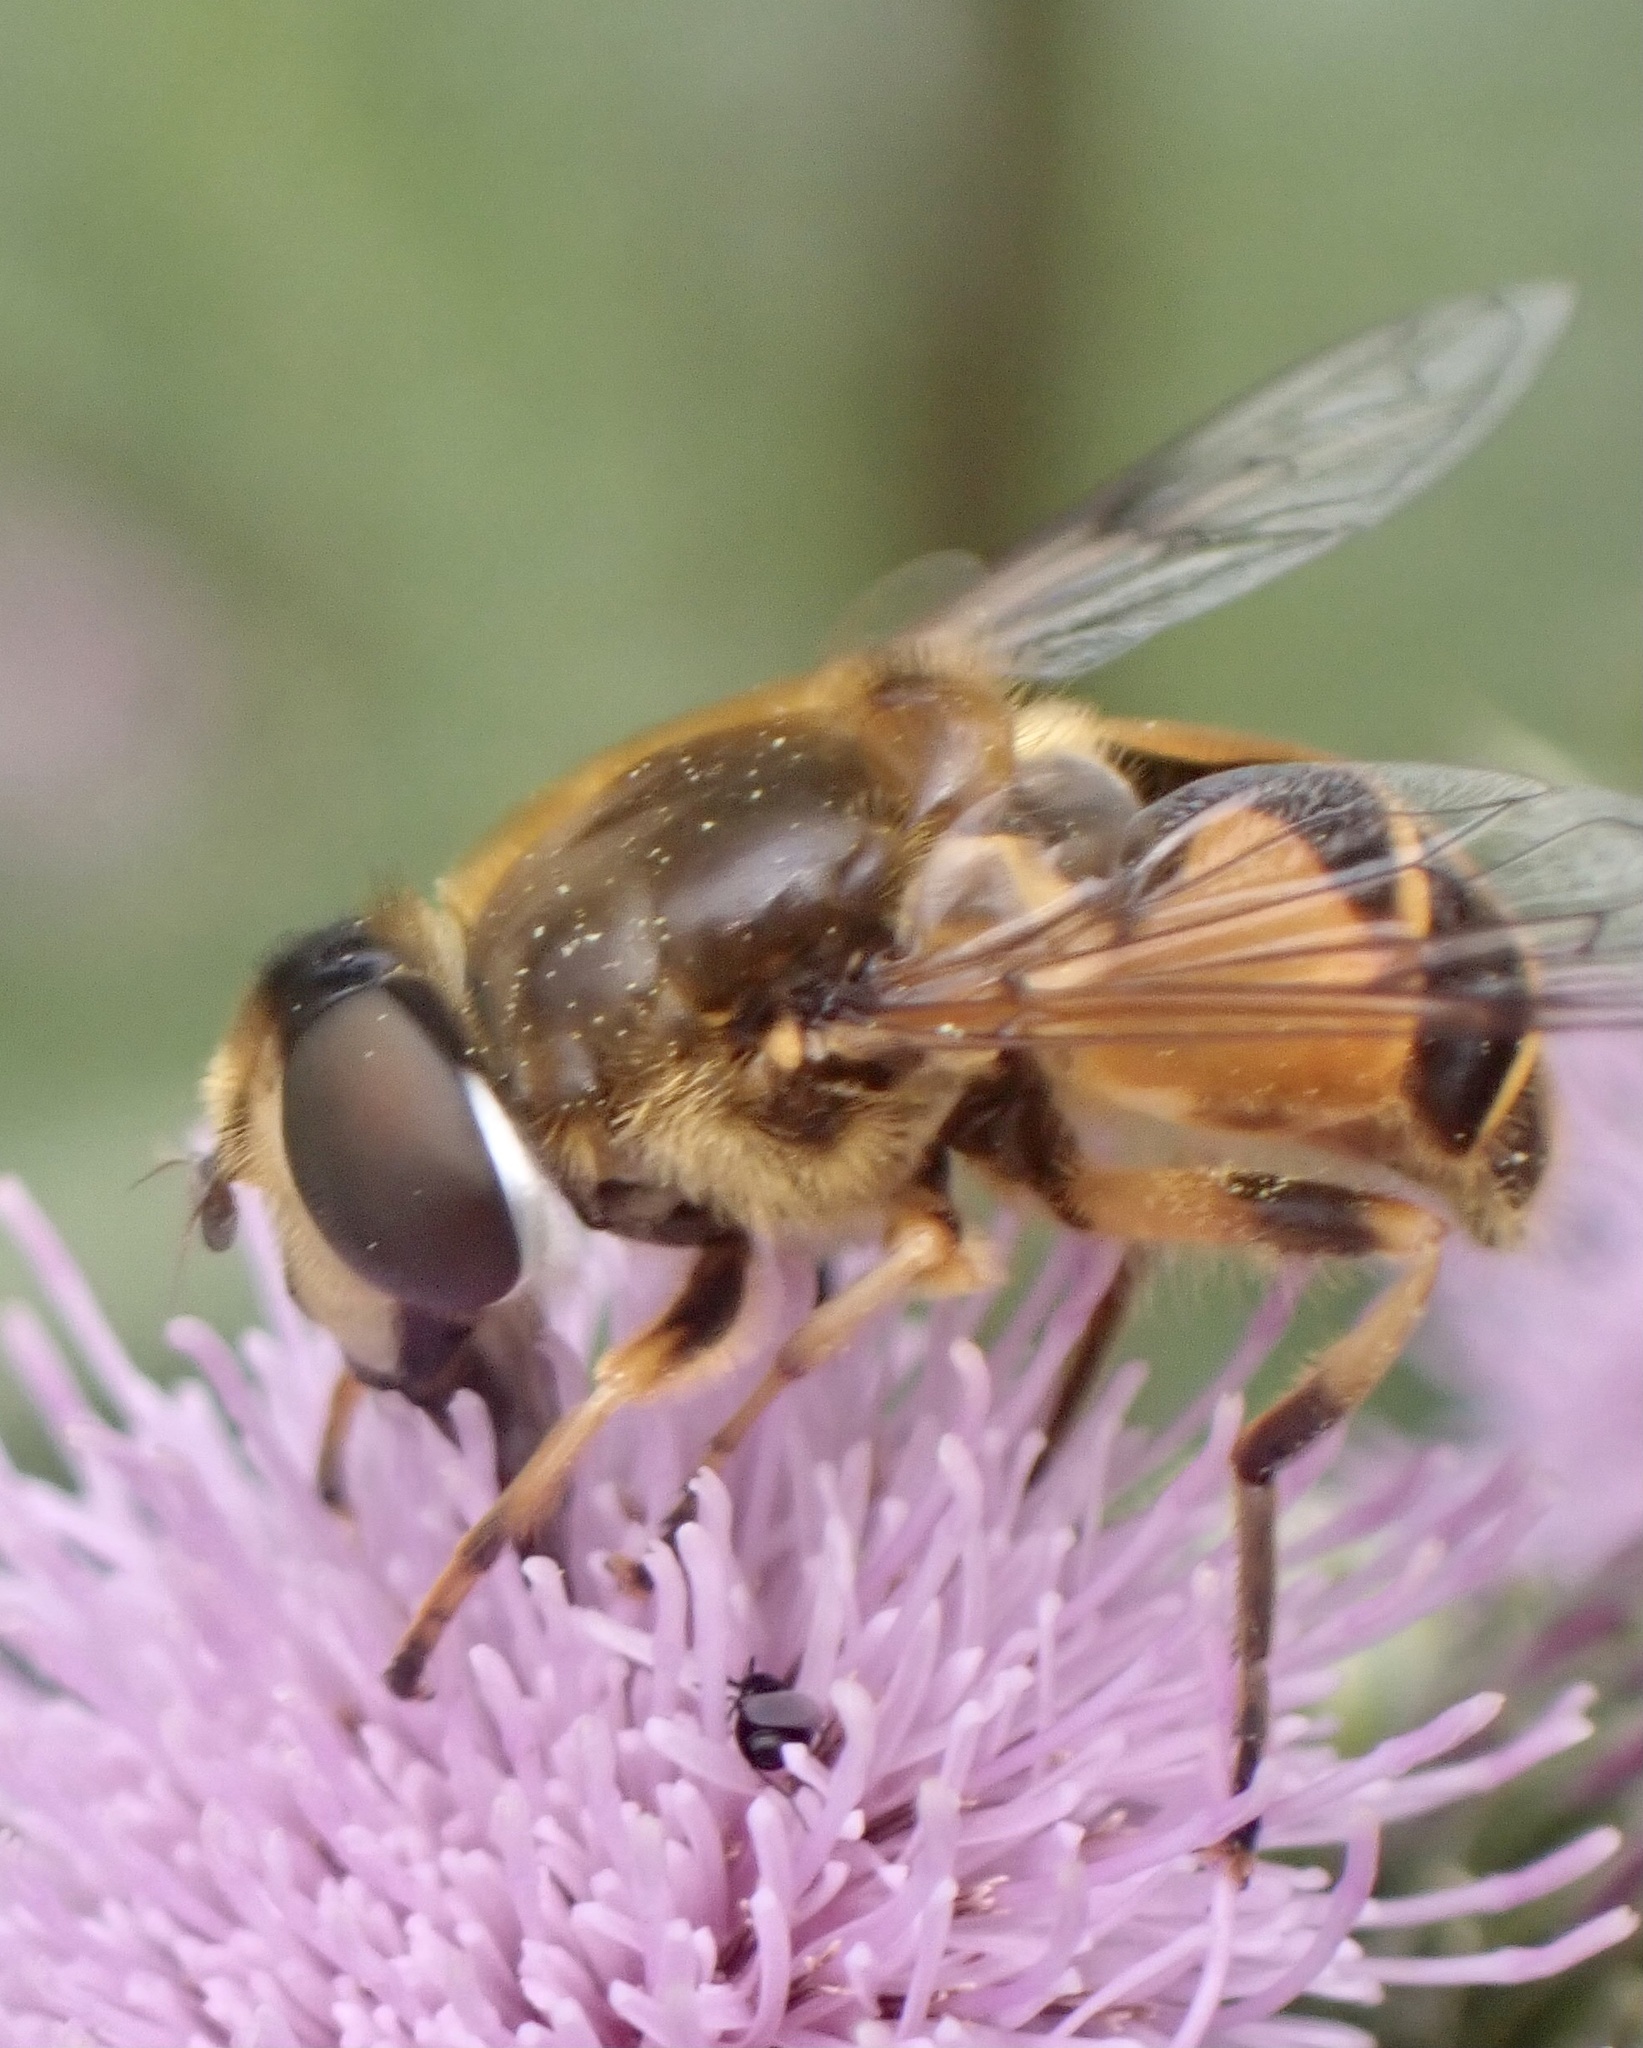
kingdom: Animalia
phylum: Arthropoda
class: Insecta
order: Diptera
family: Syrphidae
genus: Cheilosia
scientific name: Cheilosia morio
